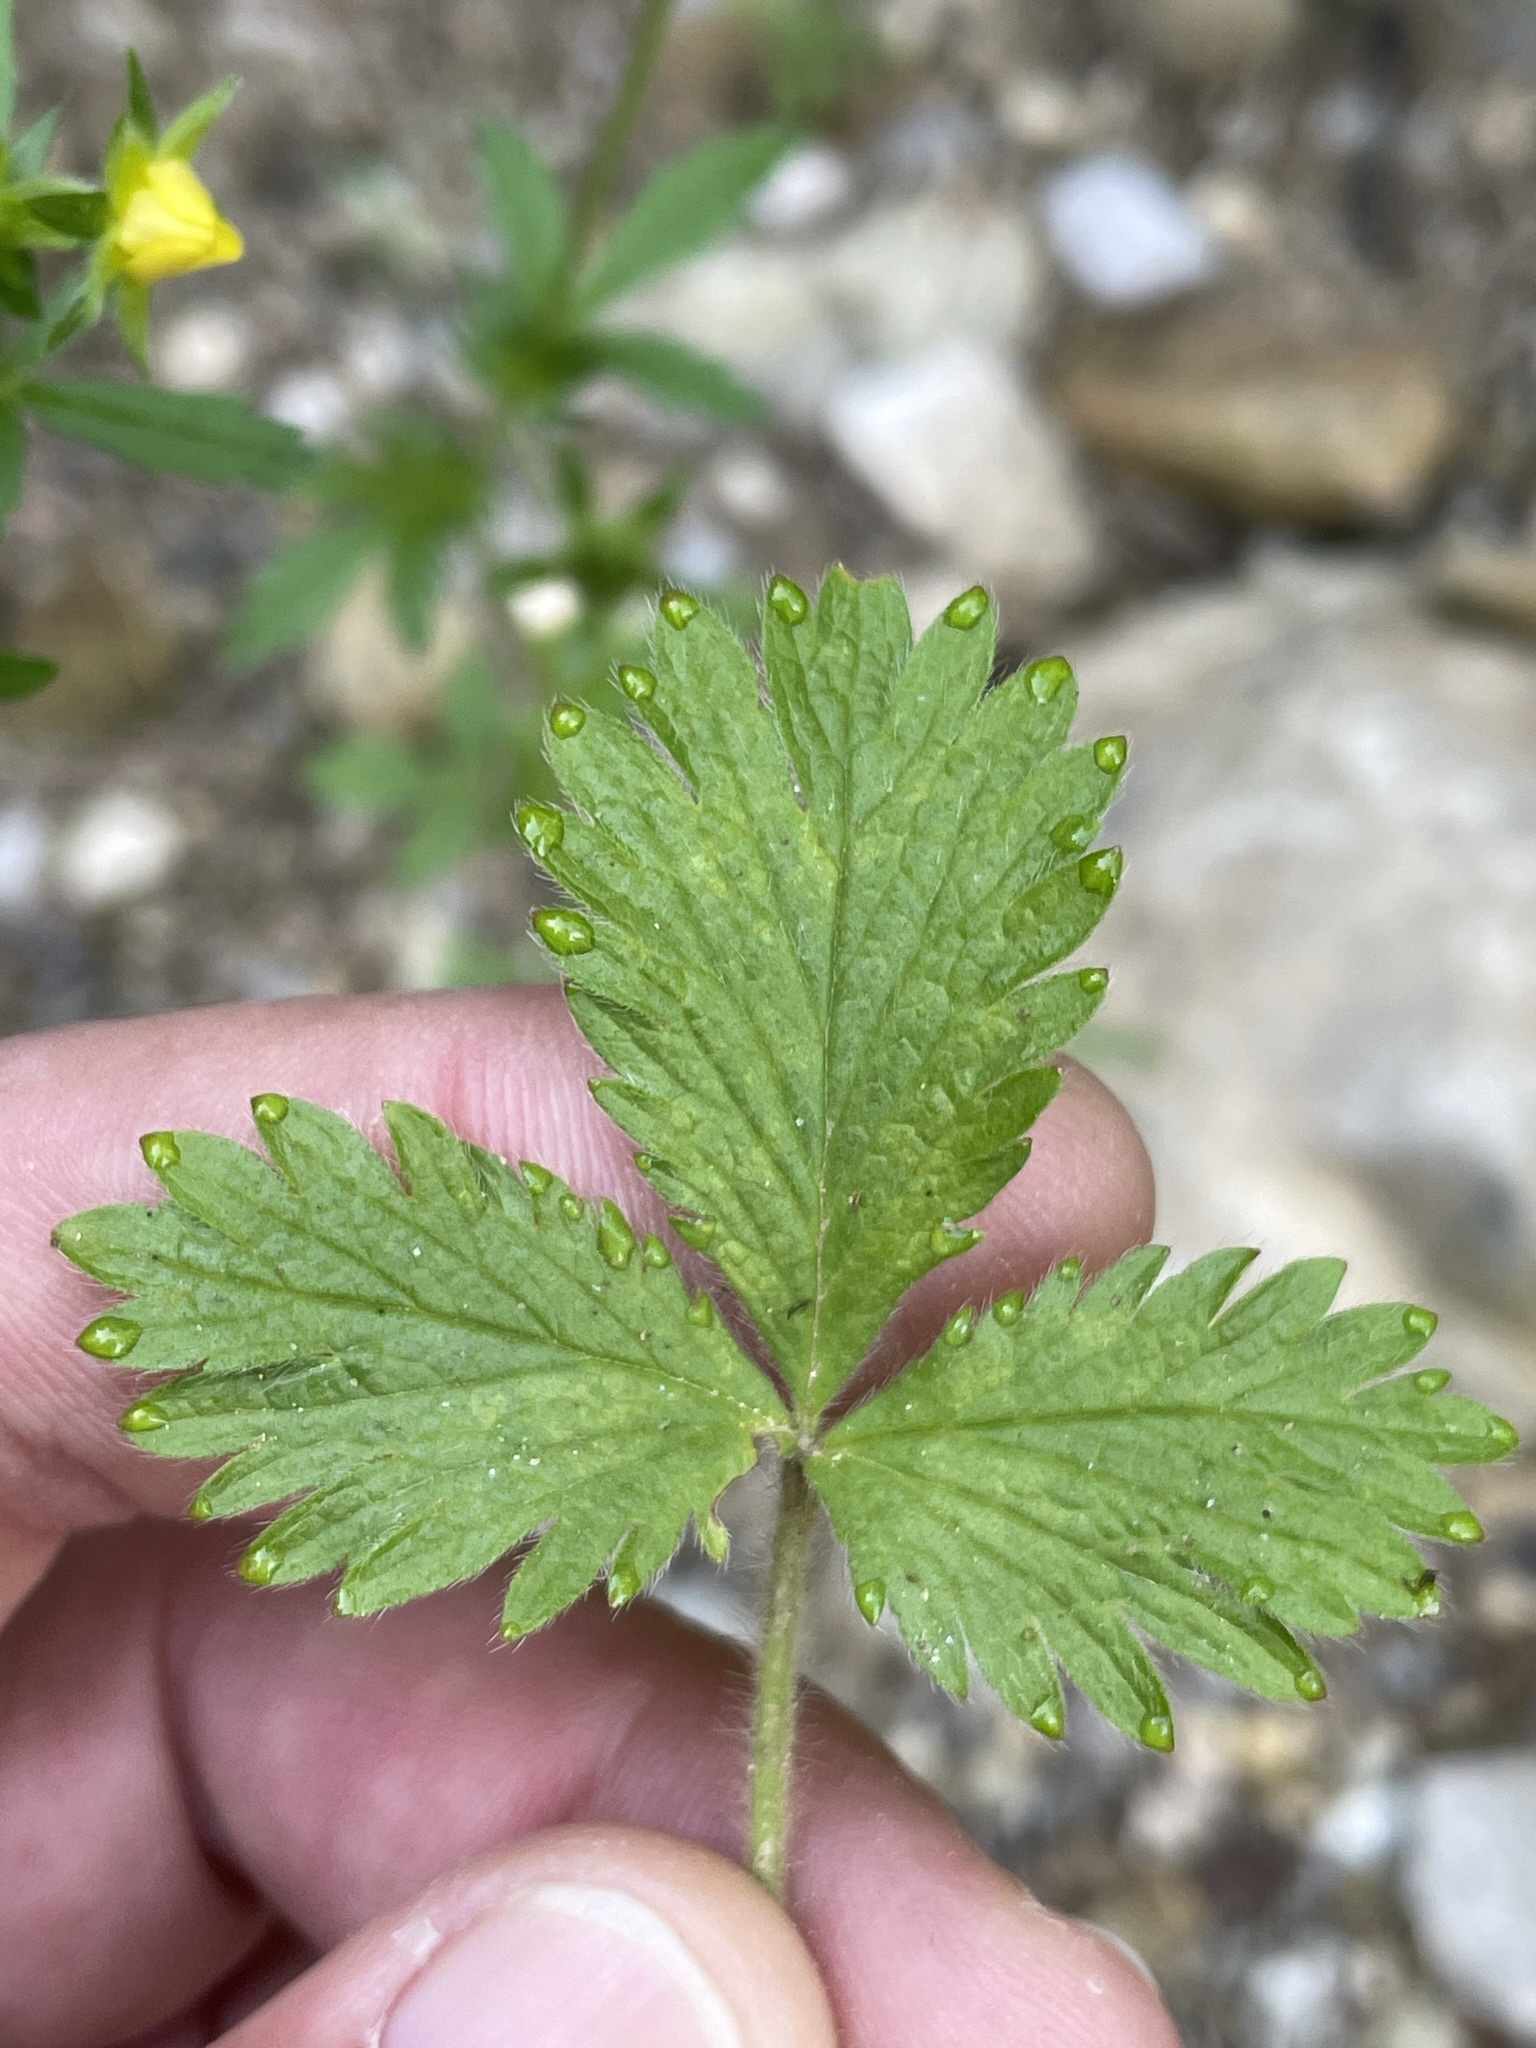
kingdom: Plantae
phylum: Tracheophyta
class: Magnoliopsida
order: Rosales
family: Rosaceae
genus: Potentilla
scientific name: Potentilla norvegica
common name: Ternate-leaved cinquefoil
